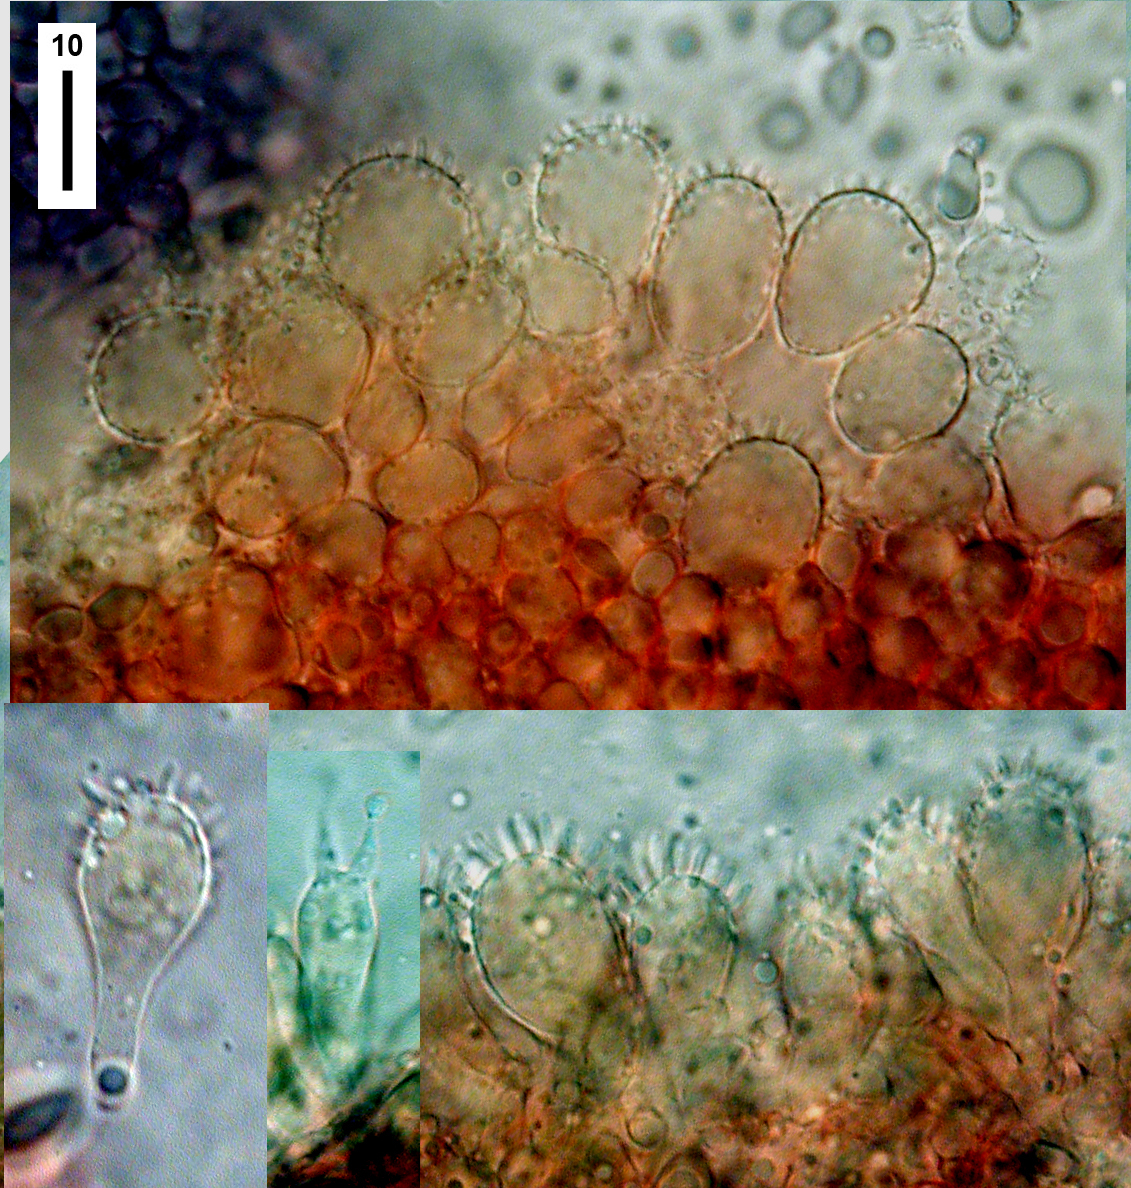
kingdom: Fungi
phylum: Basidiomycota
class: Agaricomycetes
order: Agaricales
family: Mycenaceae
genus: Mycena
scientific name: Mycena austrofilopes
